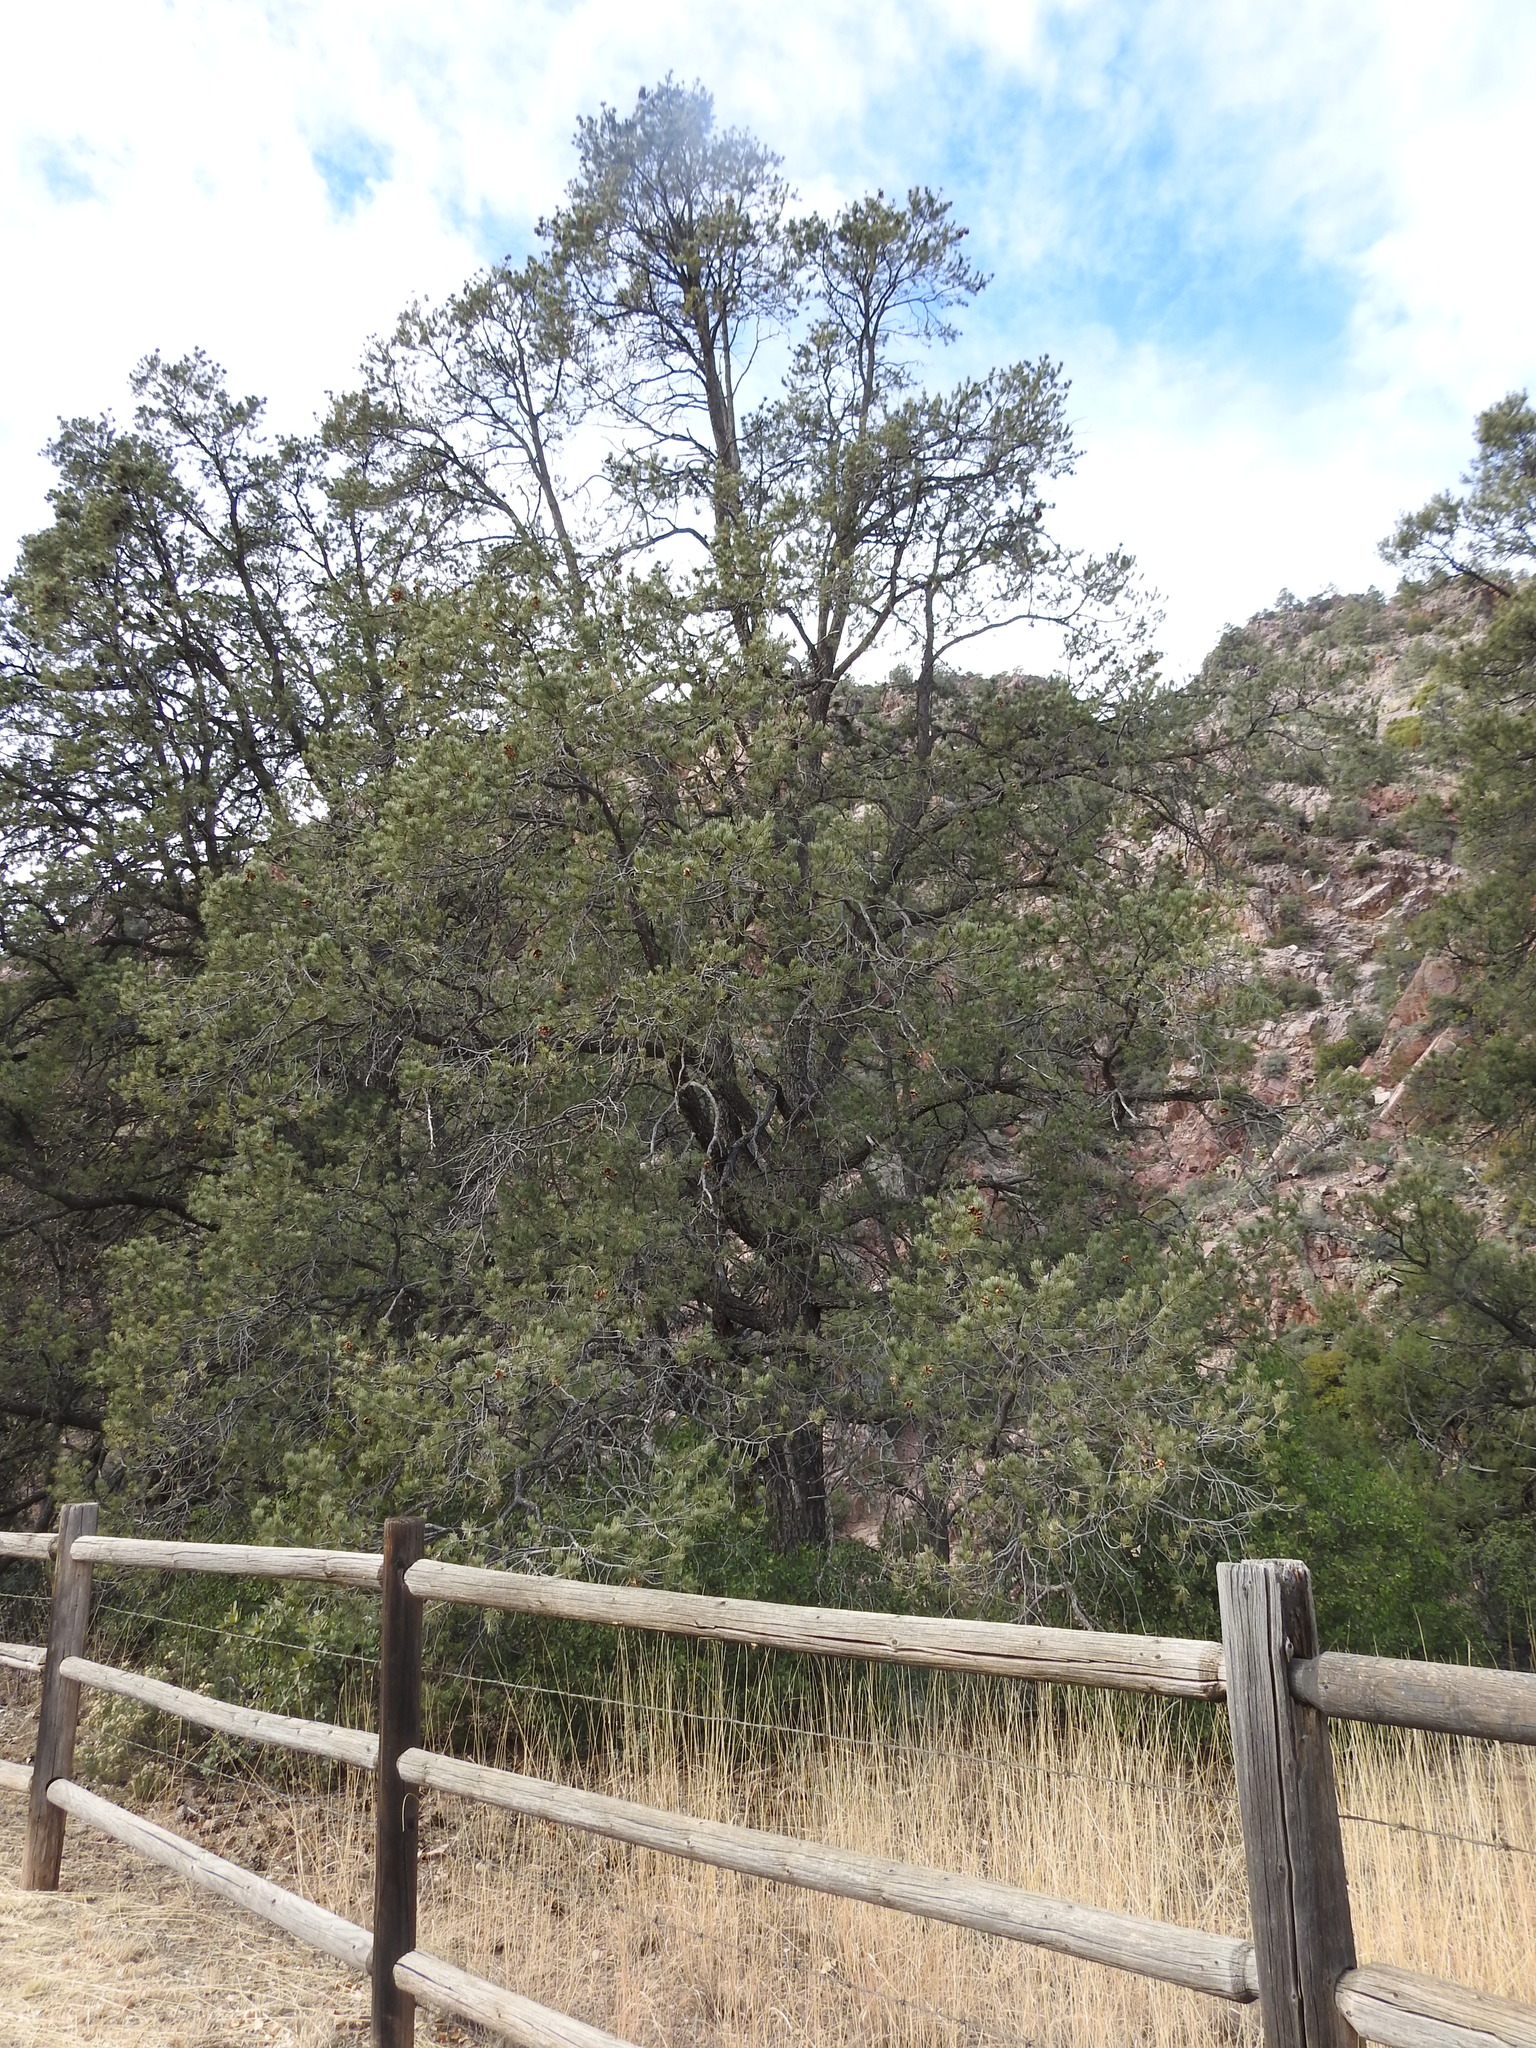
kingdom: Plantae
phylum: Tracheophyta
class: Pinopsida
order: Pinales
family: Pinaceae
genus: Pinus
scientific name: Pinus monophylla
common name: One-leaved nut pine
